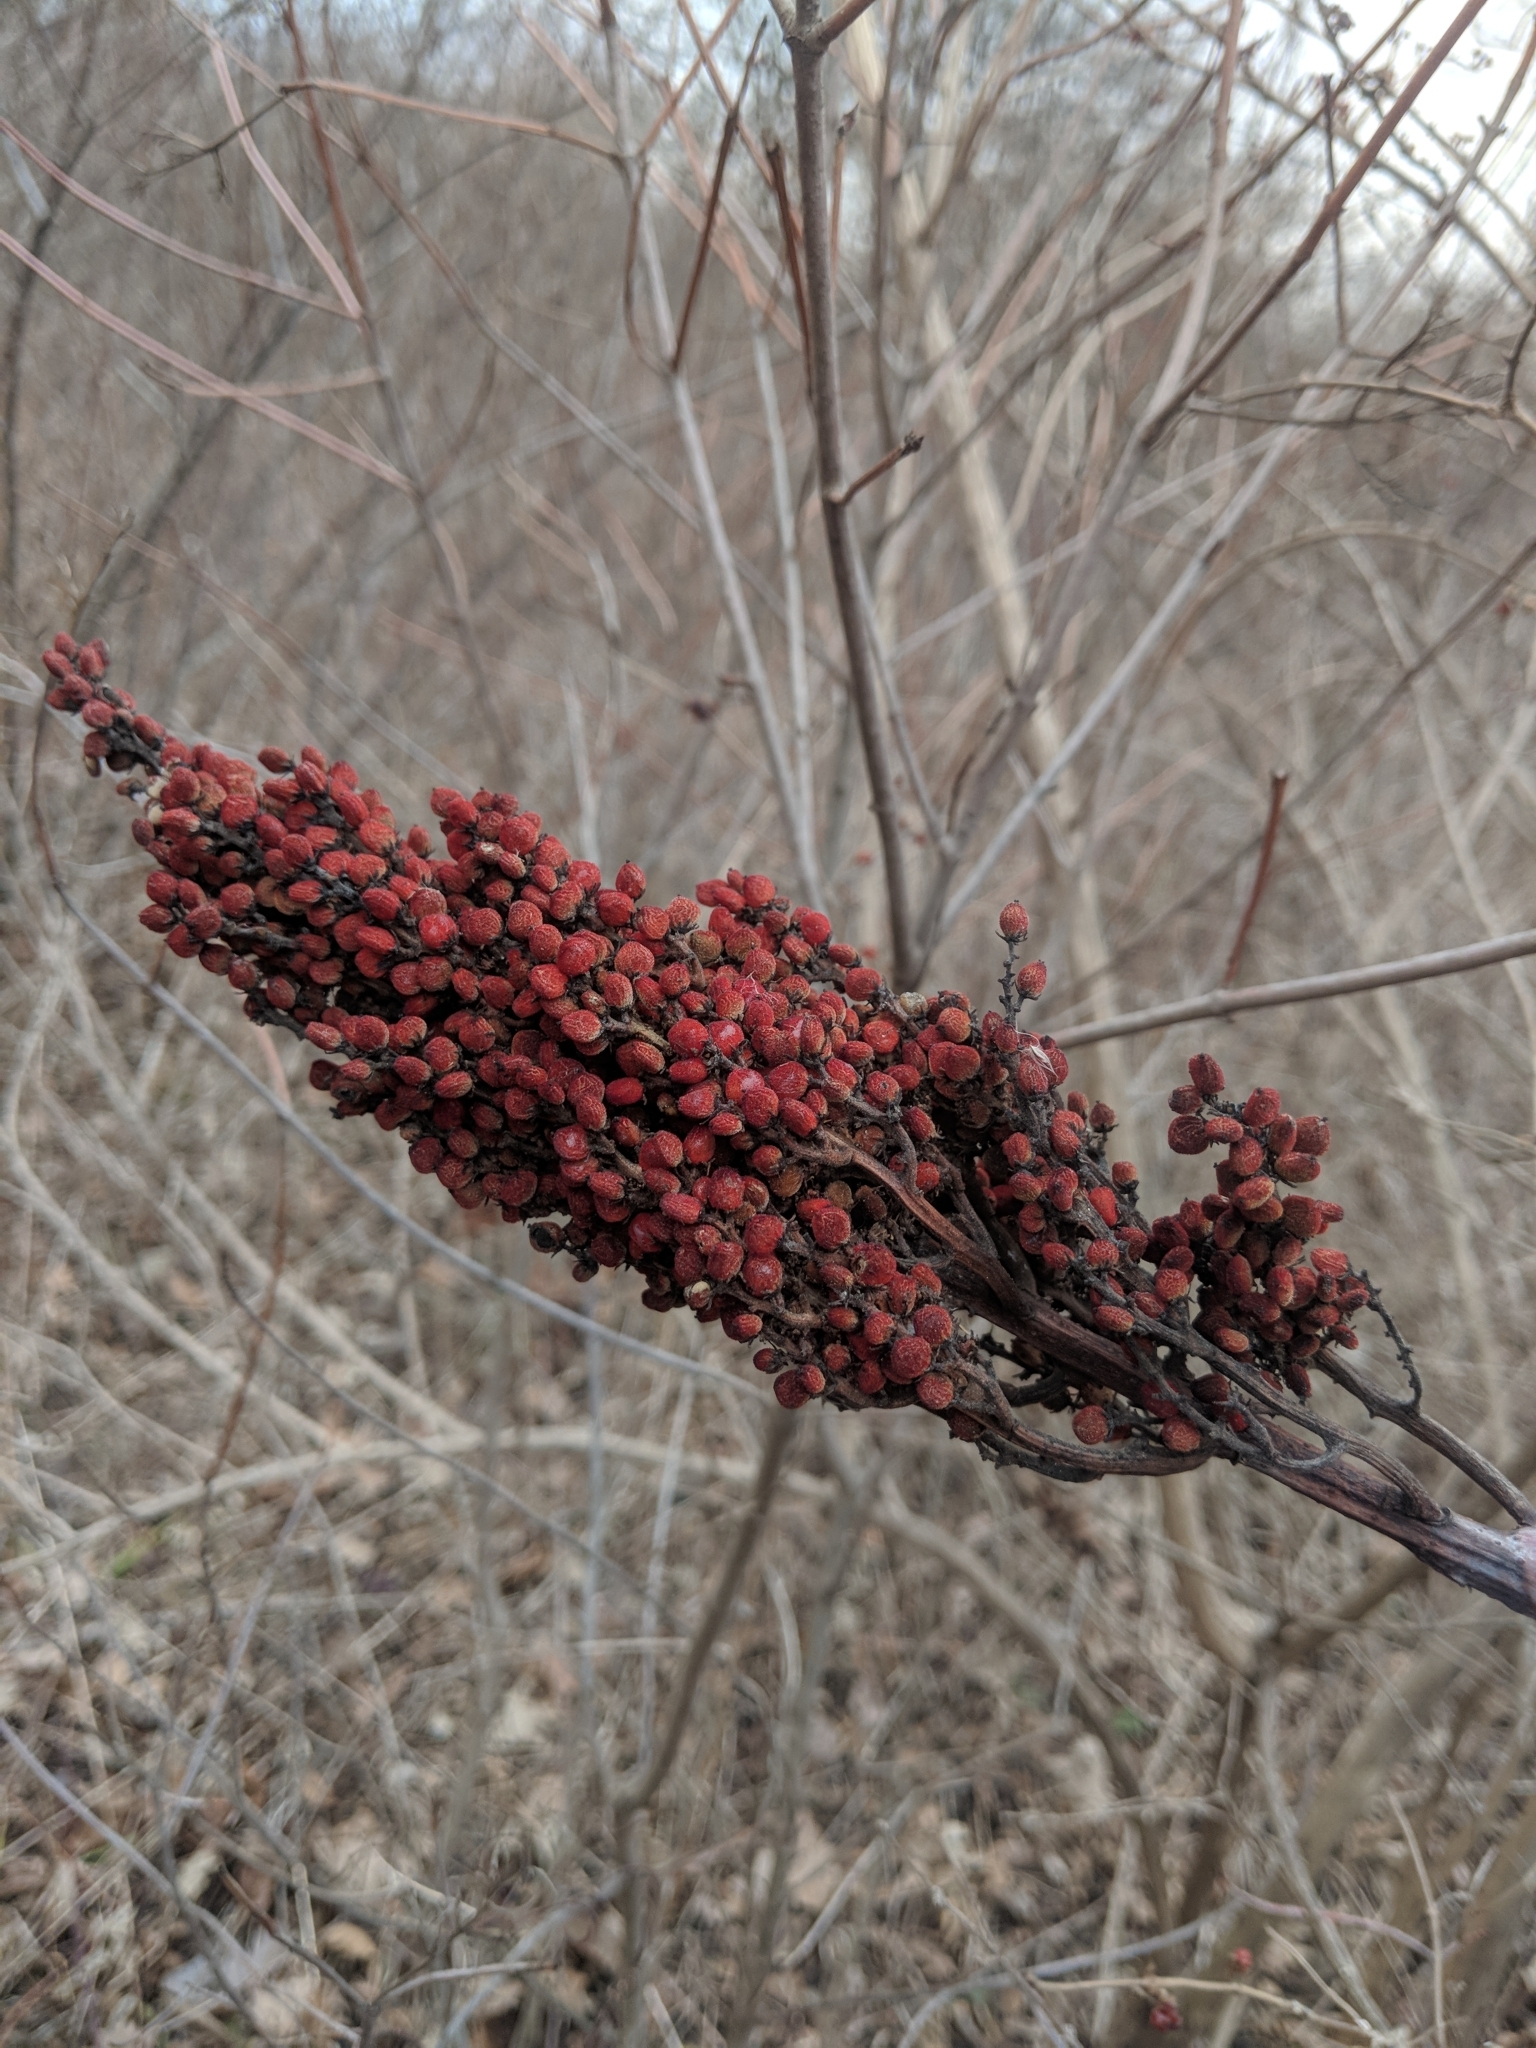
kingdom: Plantae
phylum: Tracheophyta
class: Magnoliopsida
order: Sapindales
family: Anacardiaceae
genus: Rhus
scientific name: Rhus glabra
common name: Scarlet sumac
